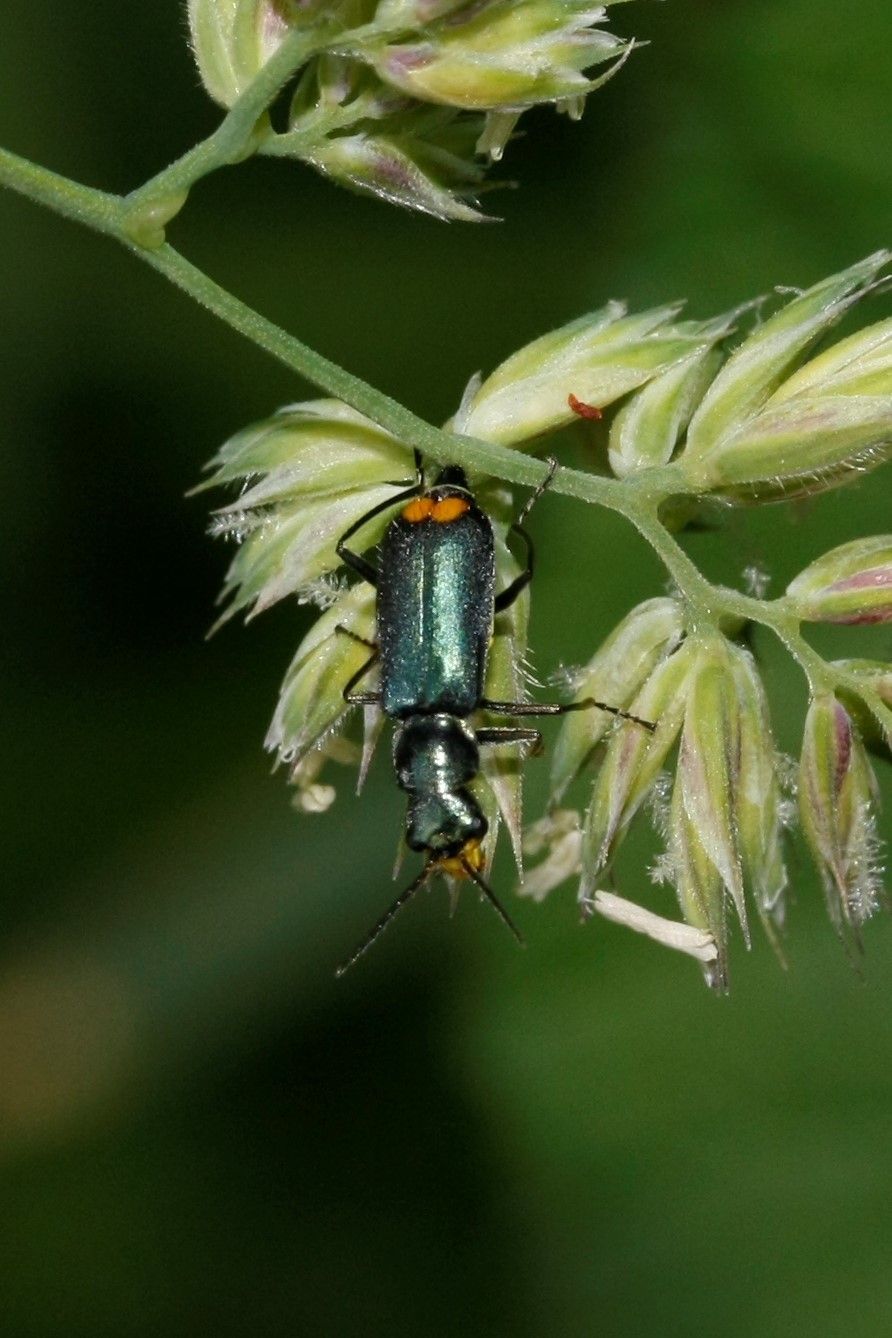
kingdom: Animalia
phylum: Arthropoda
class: Insecta
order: Coleoptera
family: Melyridae
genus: Malachius
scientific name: Malachius bipustulatus
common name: Malachite beetle
